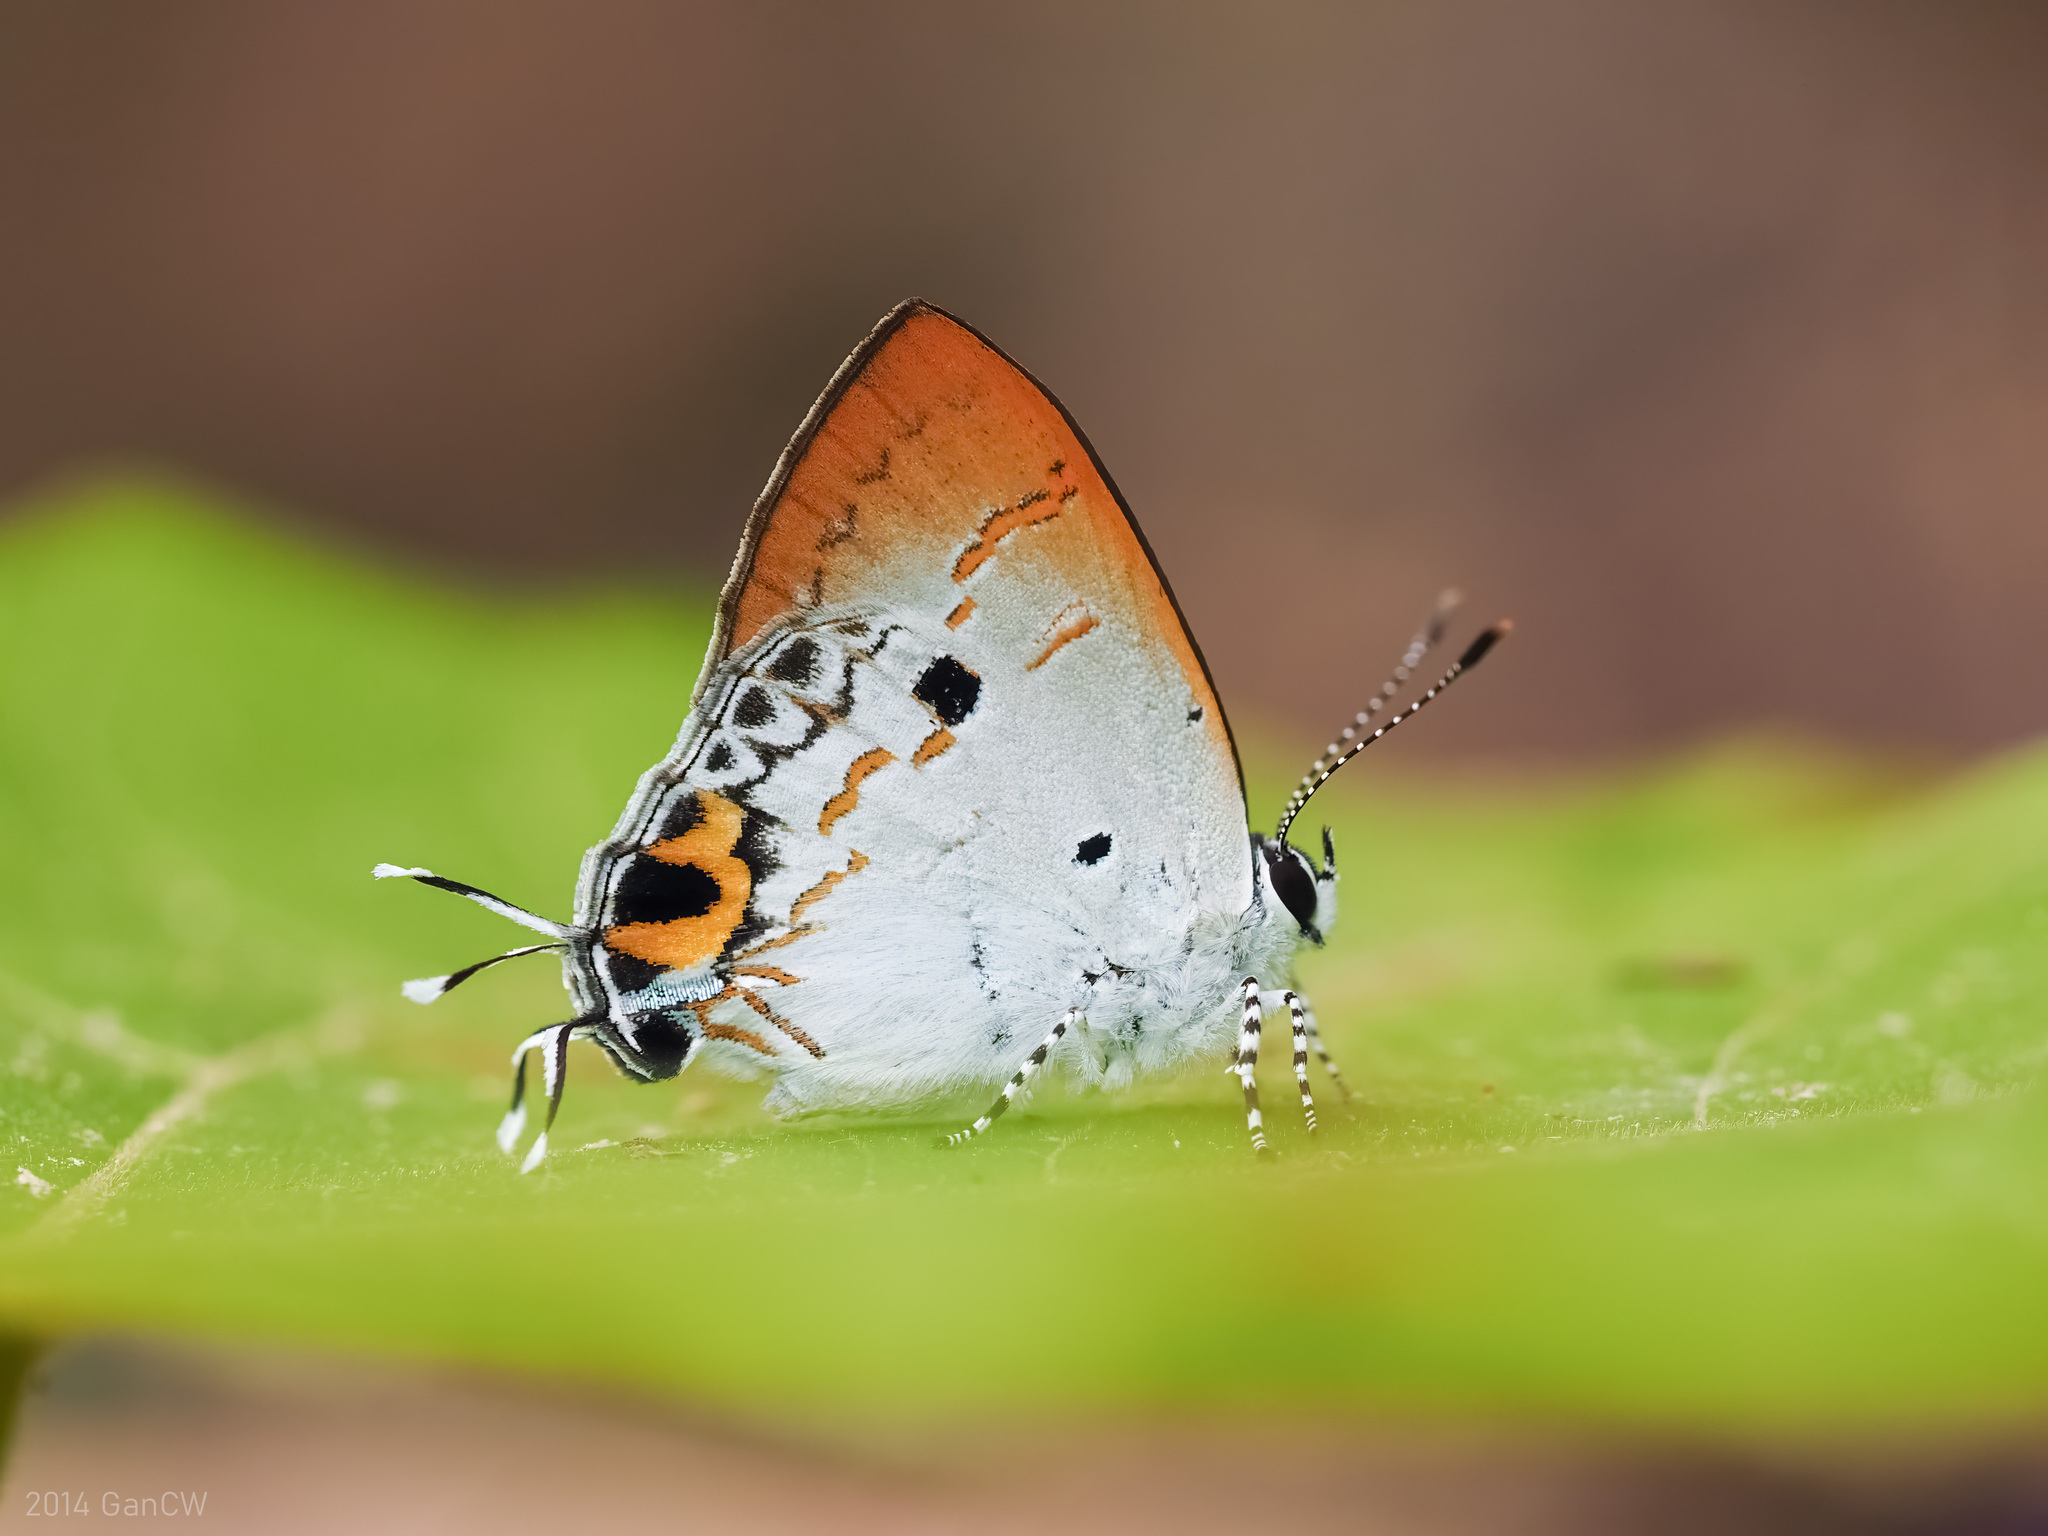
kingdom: Animalia
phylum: Arthropoda
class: Insecta
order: Lepidoptera
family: Lycaenidae
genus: Chliaria
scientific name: Chliaria othona
